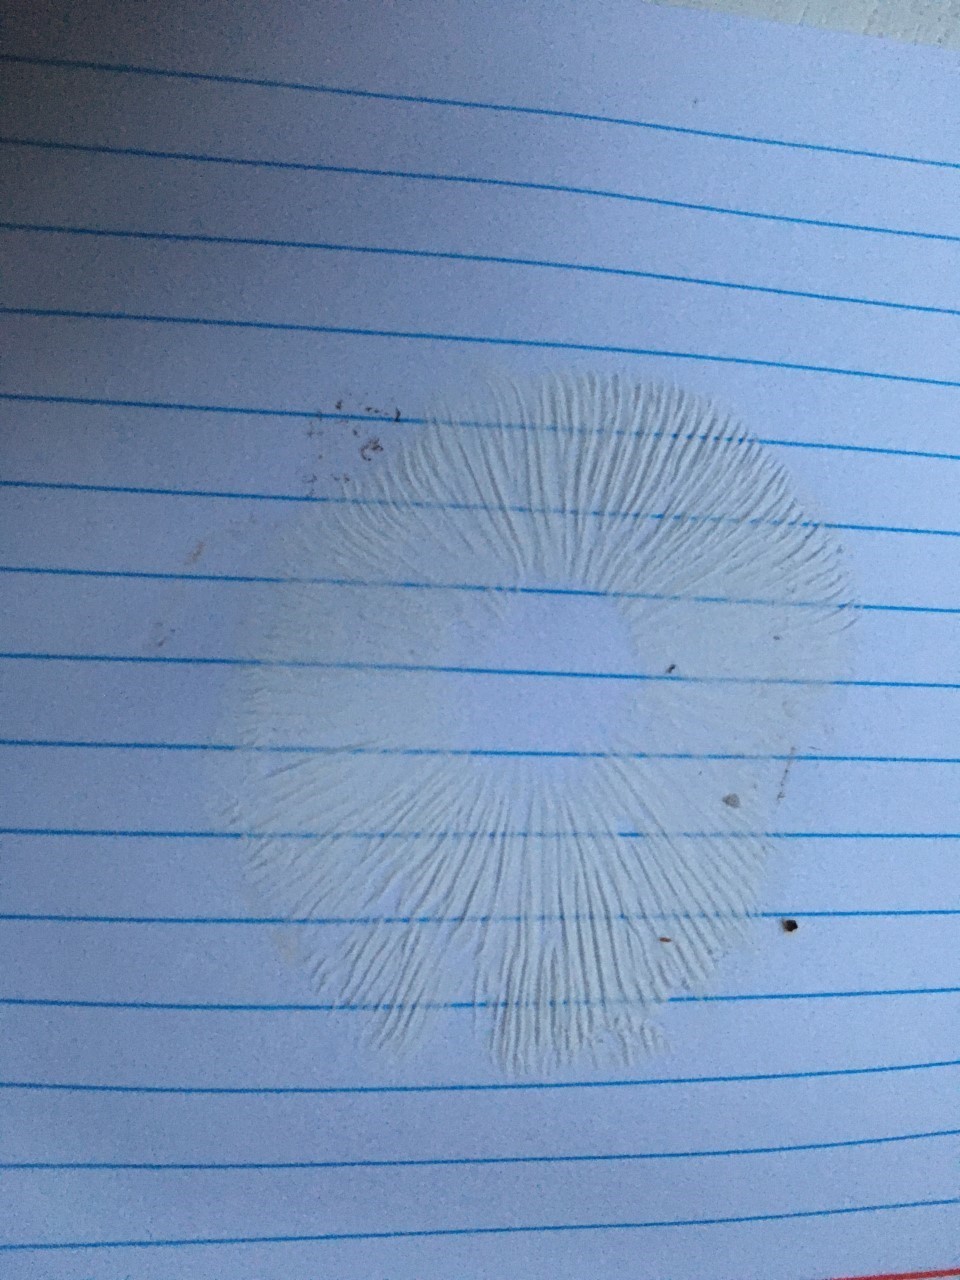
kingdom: Fungi
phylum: Basidiomycota
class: Agaricomycetes
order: Agaricales
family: Tricholomataceae
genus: Tricholoma
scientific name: Tricholoma terreum
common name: Grey knight
